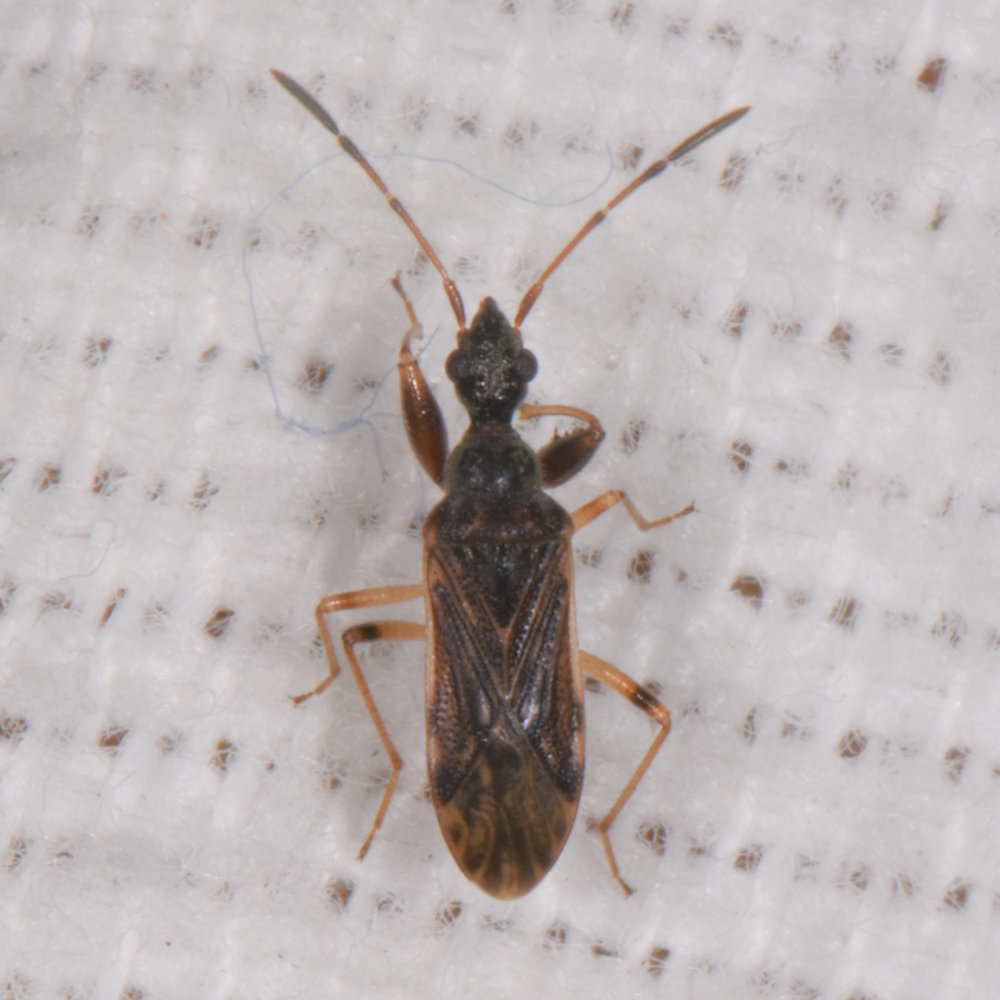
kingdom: Animalia
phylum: Arthropoda
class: Insecta
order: Hemiptera
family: Rhyparochromidae
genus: Heraeus
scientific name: Heraeus plebejus
